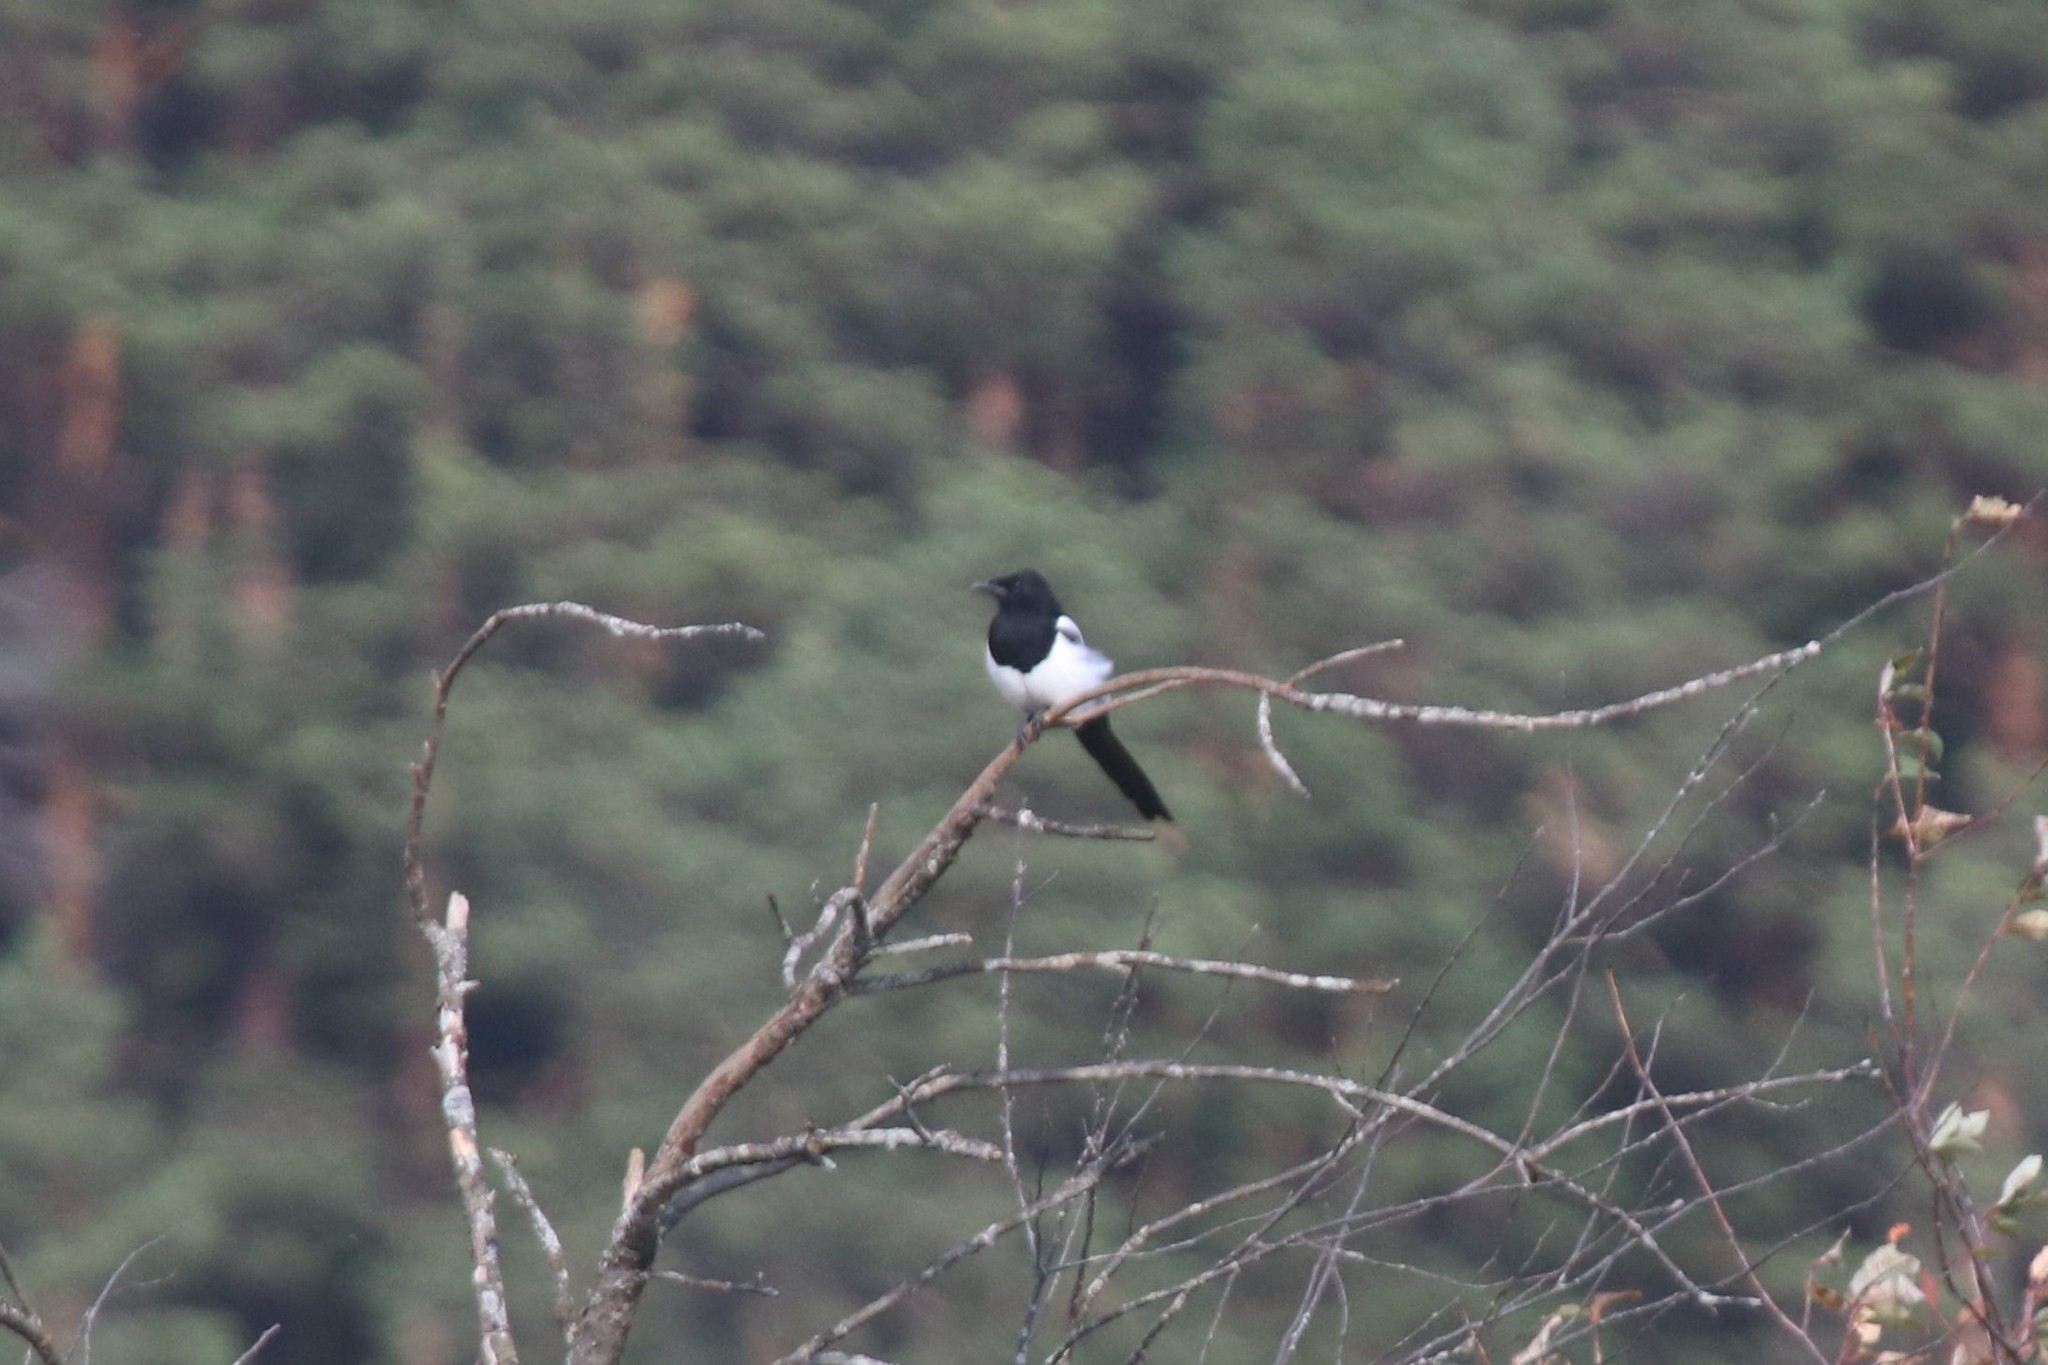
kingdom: Animalia
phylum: Chordata
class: Aves
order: Passeriformes
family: Corvidae
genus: Pica
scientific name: Pica pica
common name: Eurasian magpie
